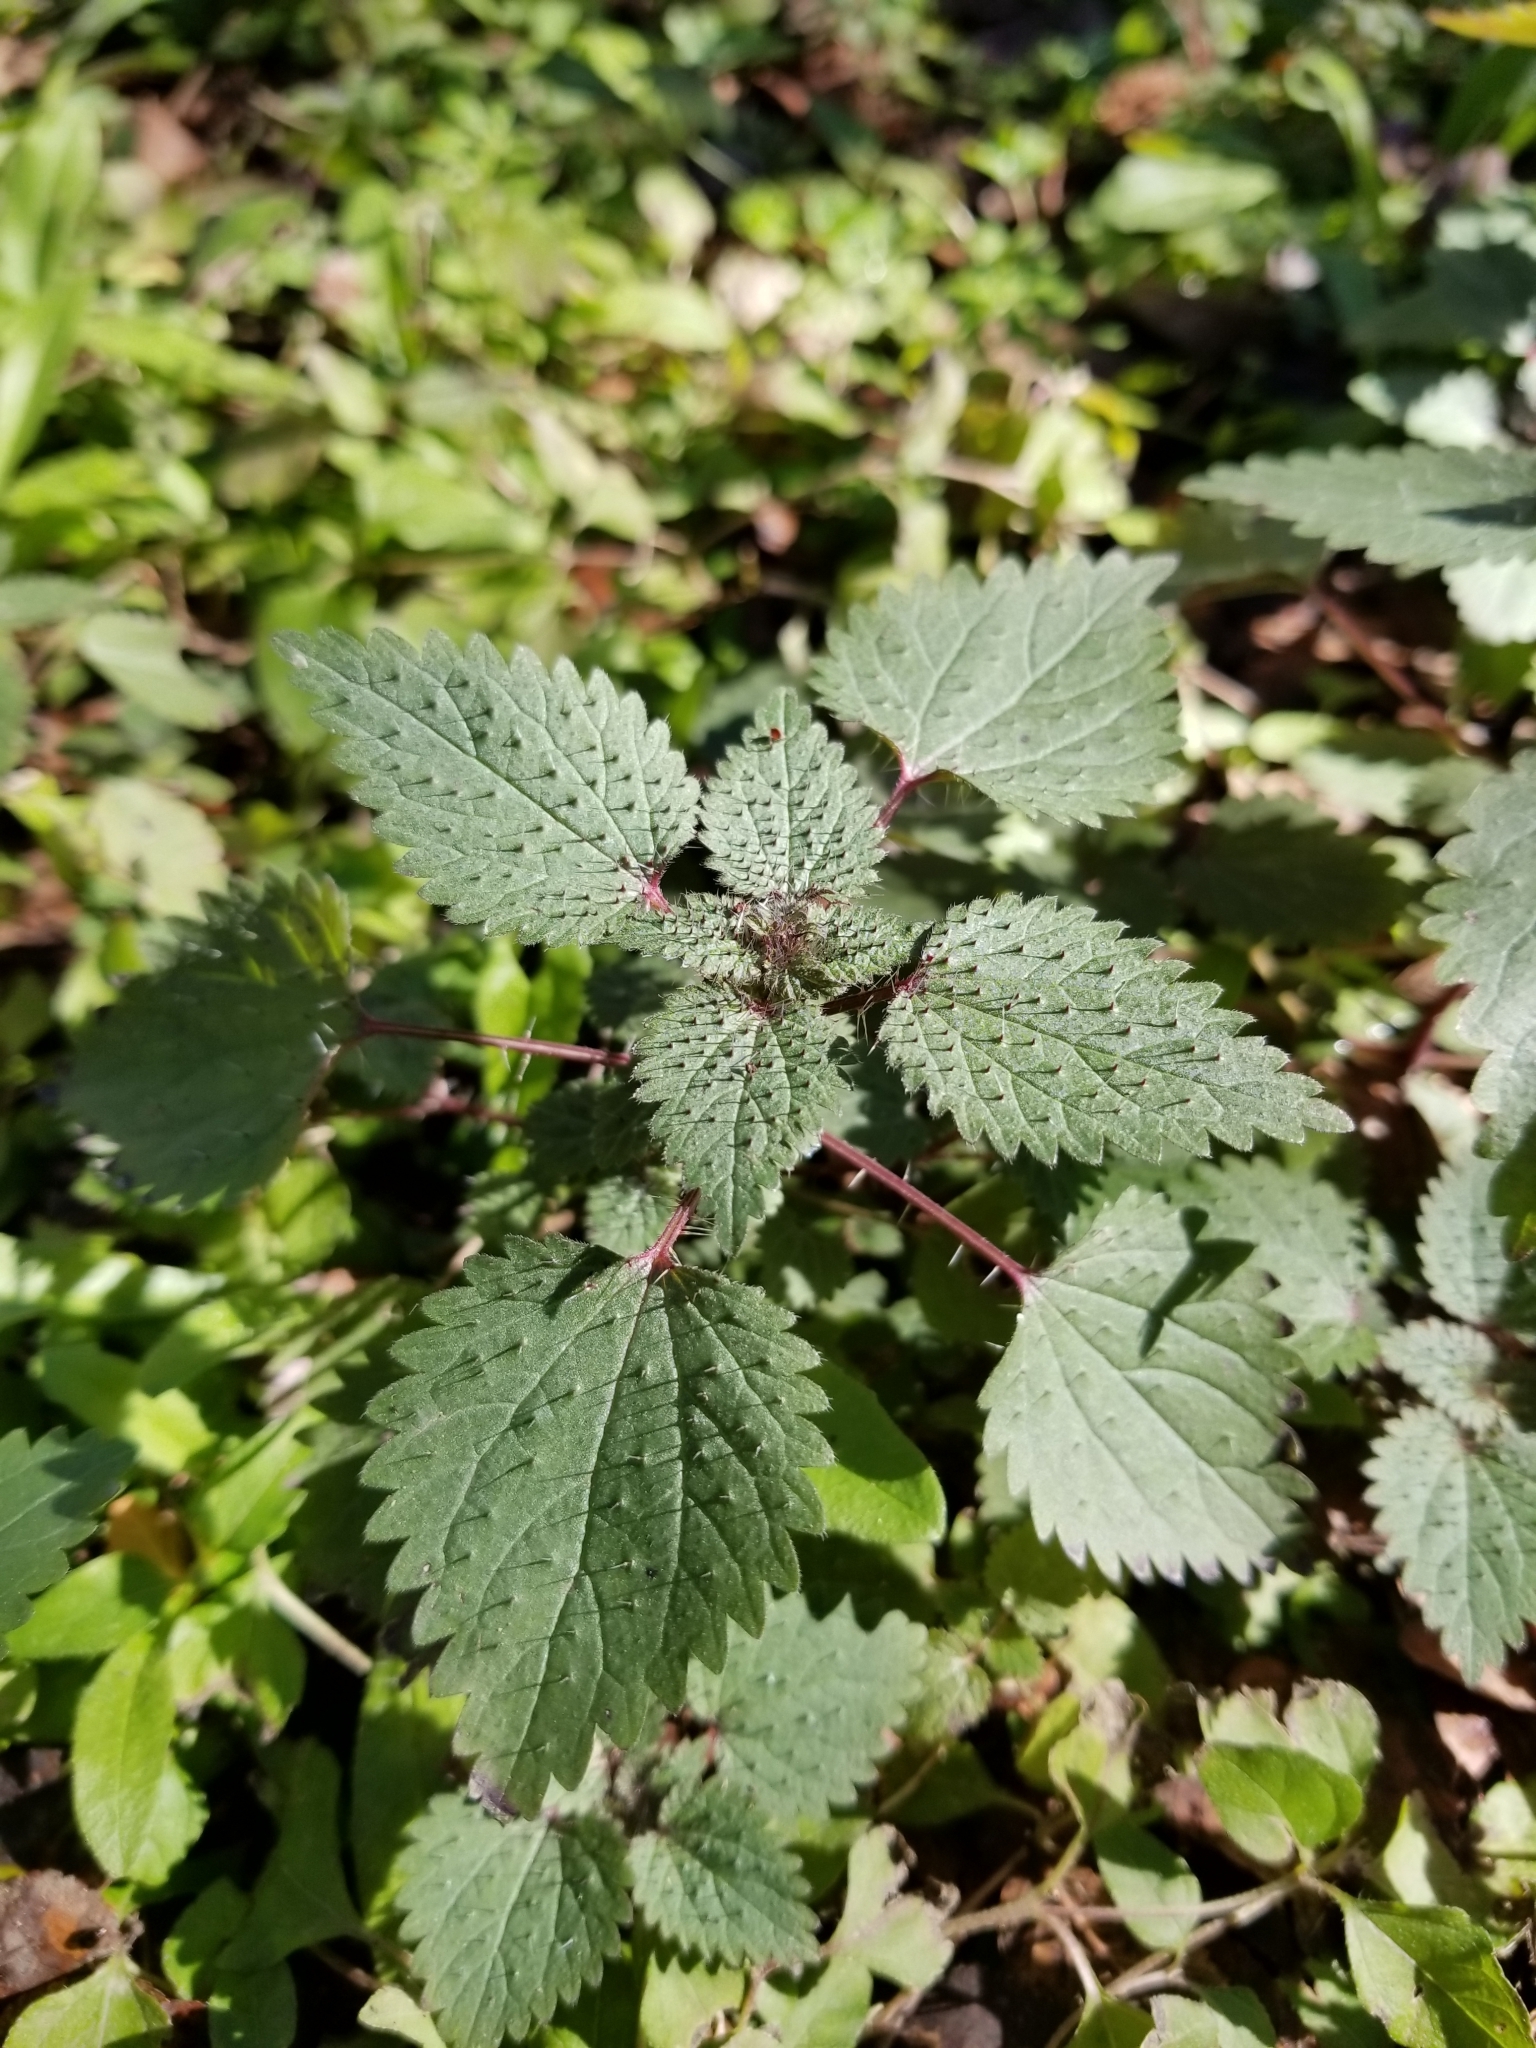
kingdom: Plantae
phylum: Tracheophyta
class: Magnoliopsida
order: Rosales
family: Urticaceae
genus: Urtica
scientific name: Urtica chamaedryoides
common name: Heart-leaf nettle
